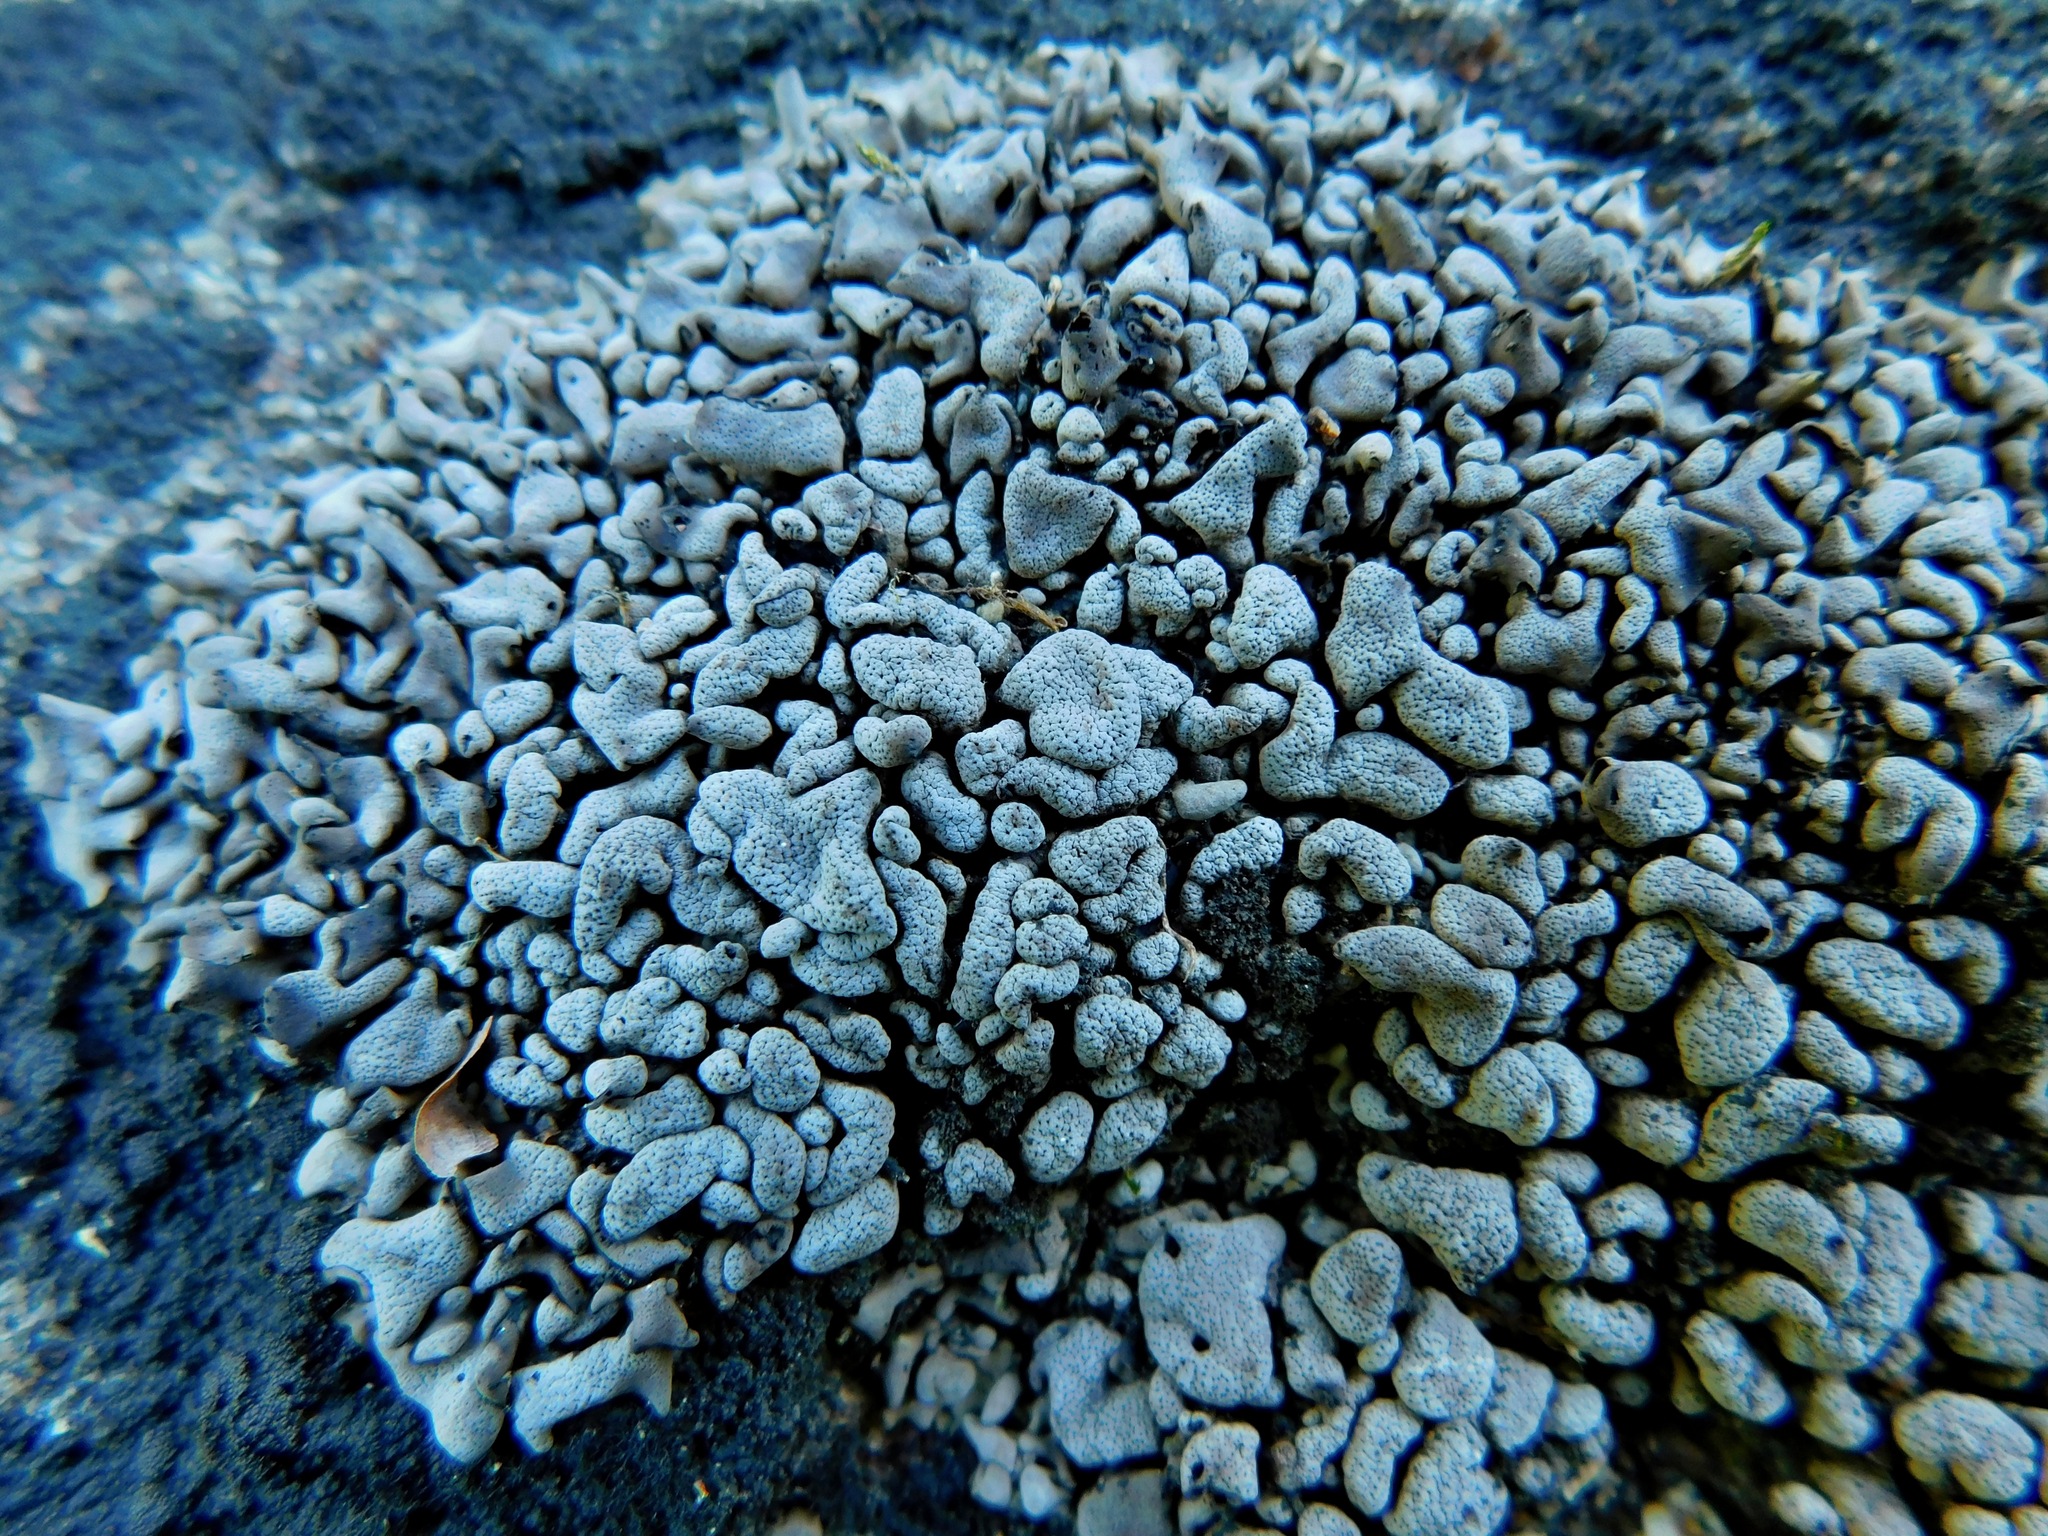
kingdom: Fungi
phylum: Ascomycota
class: Eurotiomycetes
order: Verrucariales
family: Verrucariaceae
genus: Dermatocarpon
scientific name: Dermatocarpon intestiniforme
